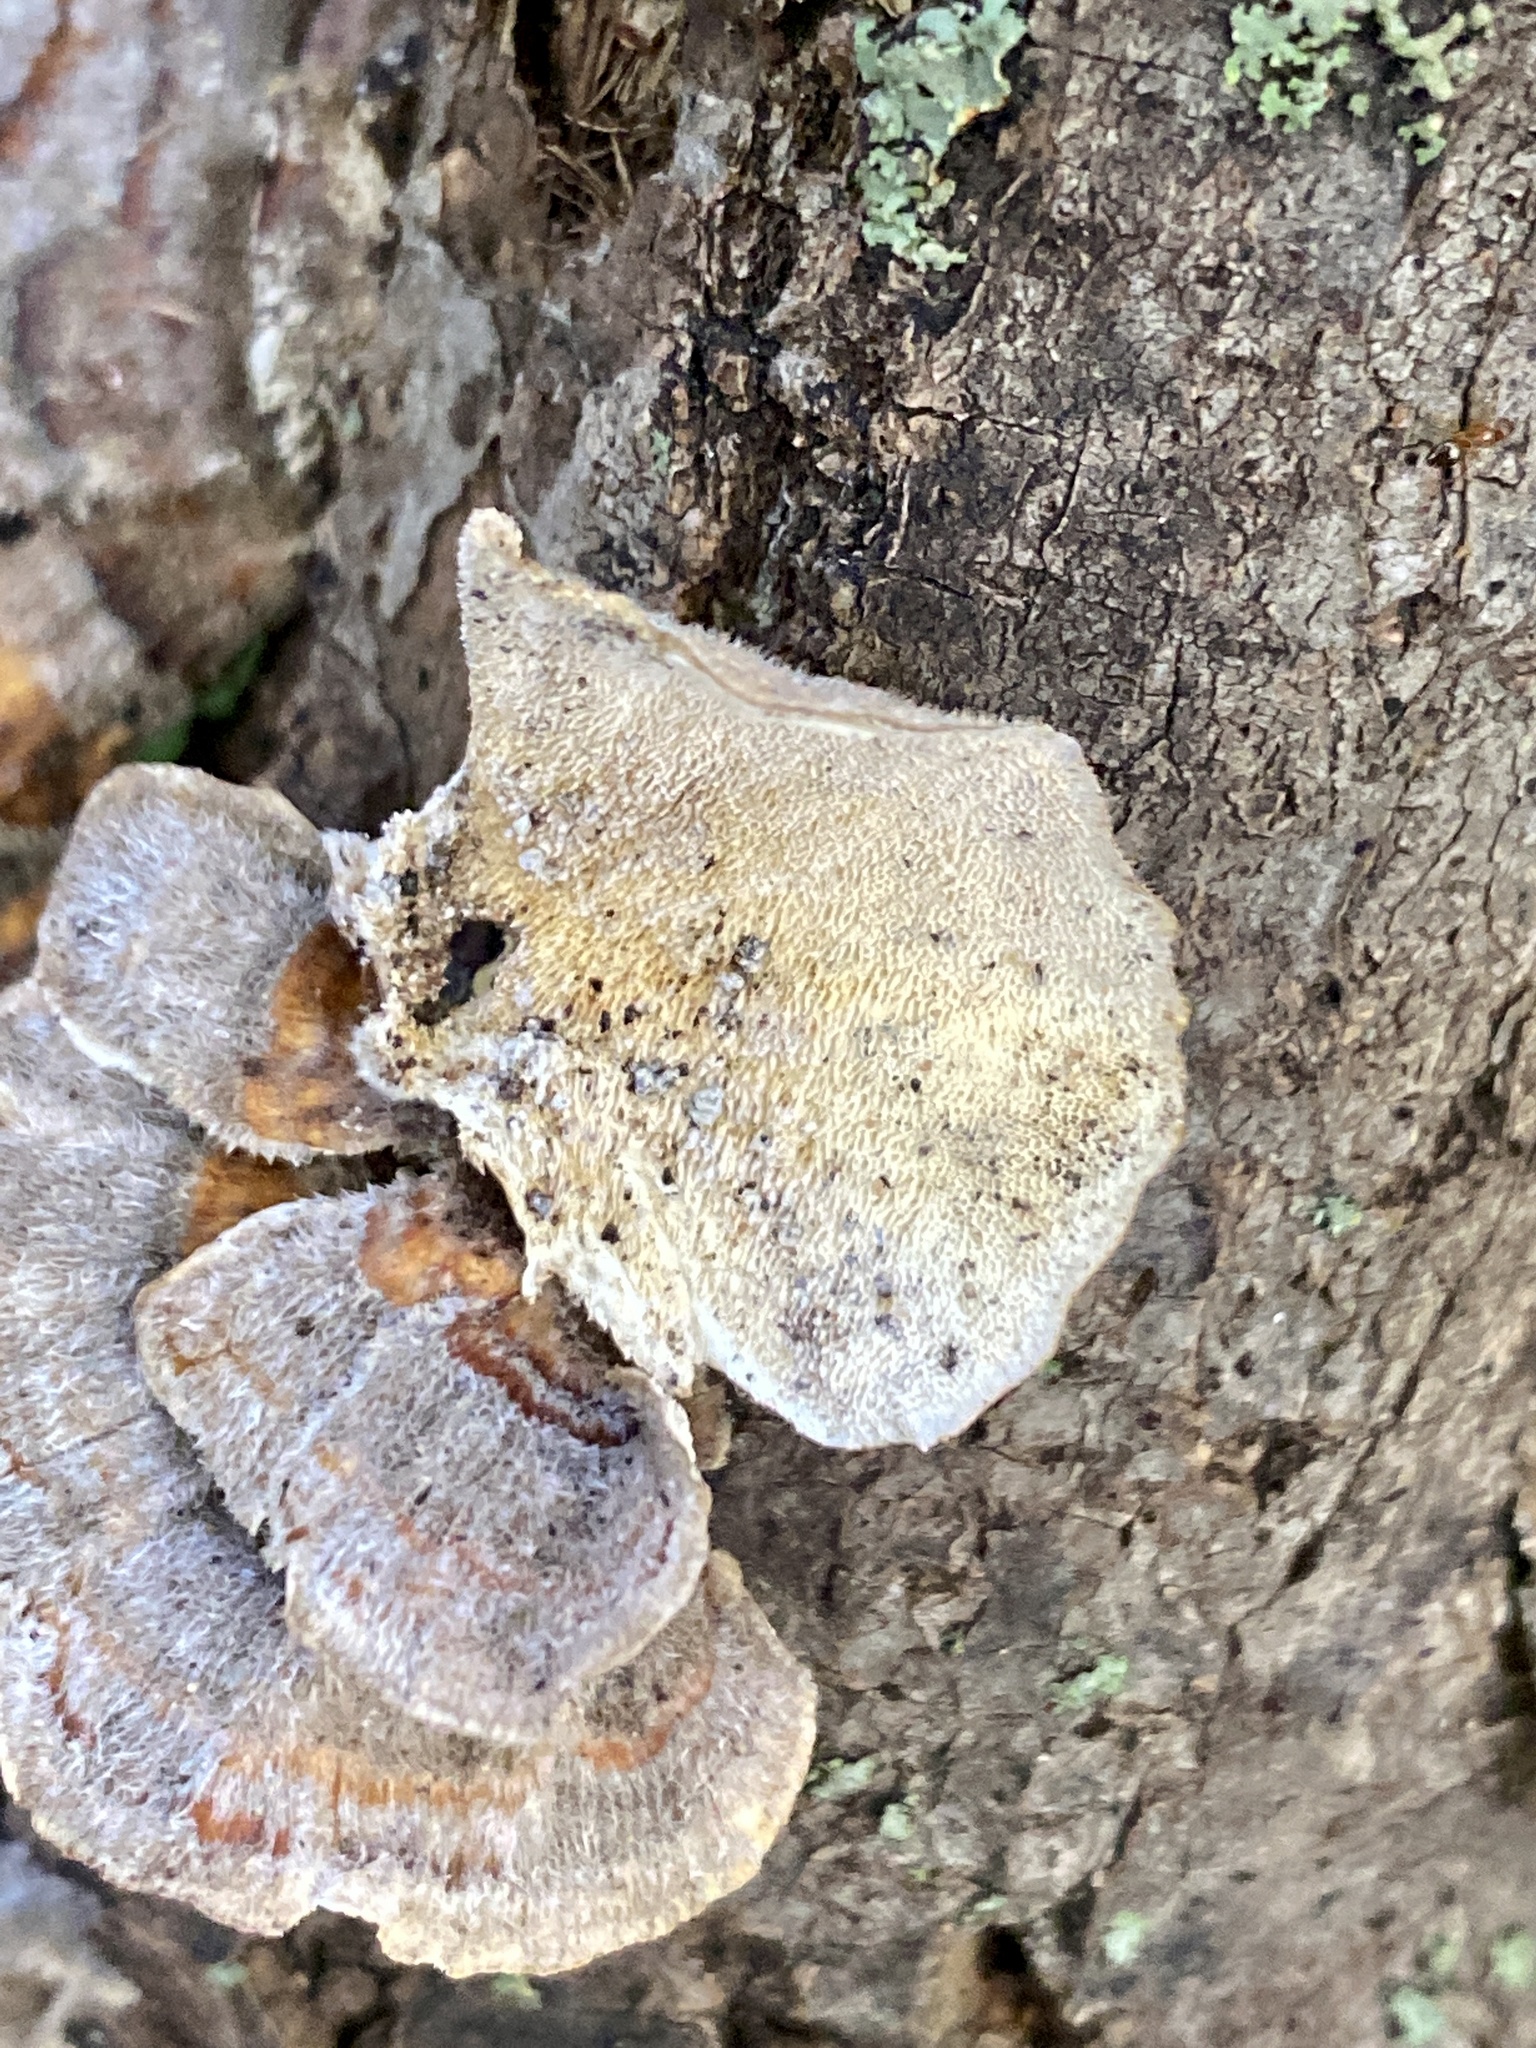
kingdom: Fungi
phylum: Basidiomycota
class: Agaricomycetes
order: Polyporales
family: Polyporaceae
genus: Trametes
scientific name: Trametes versicolor
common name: Turkeytail
